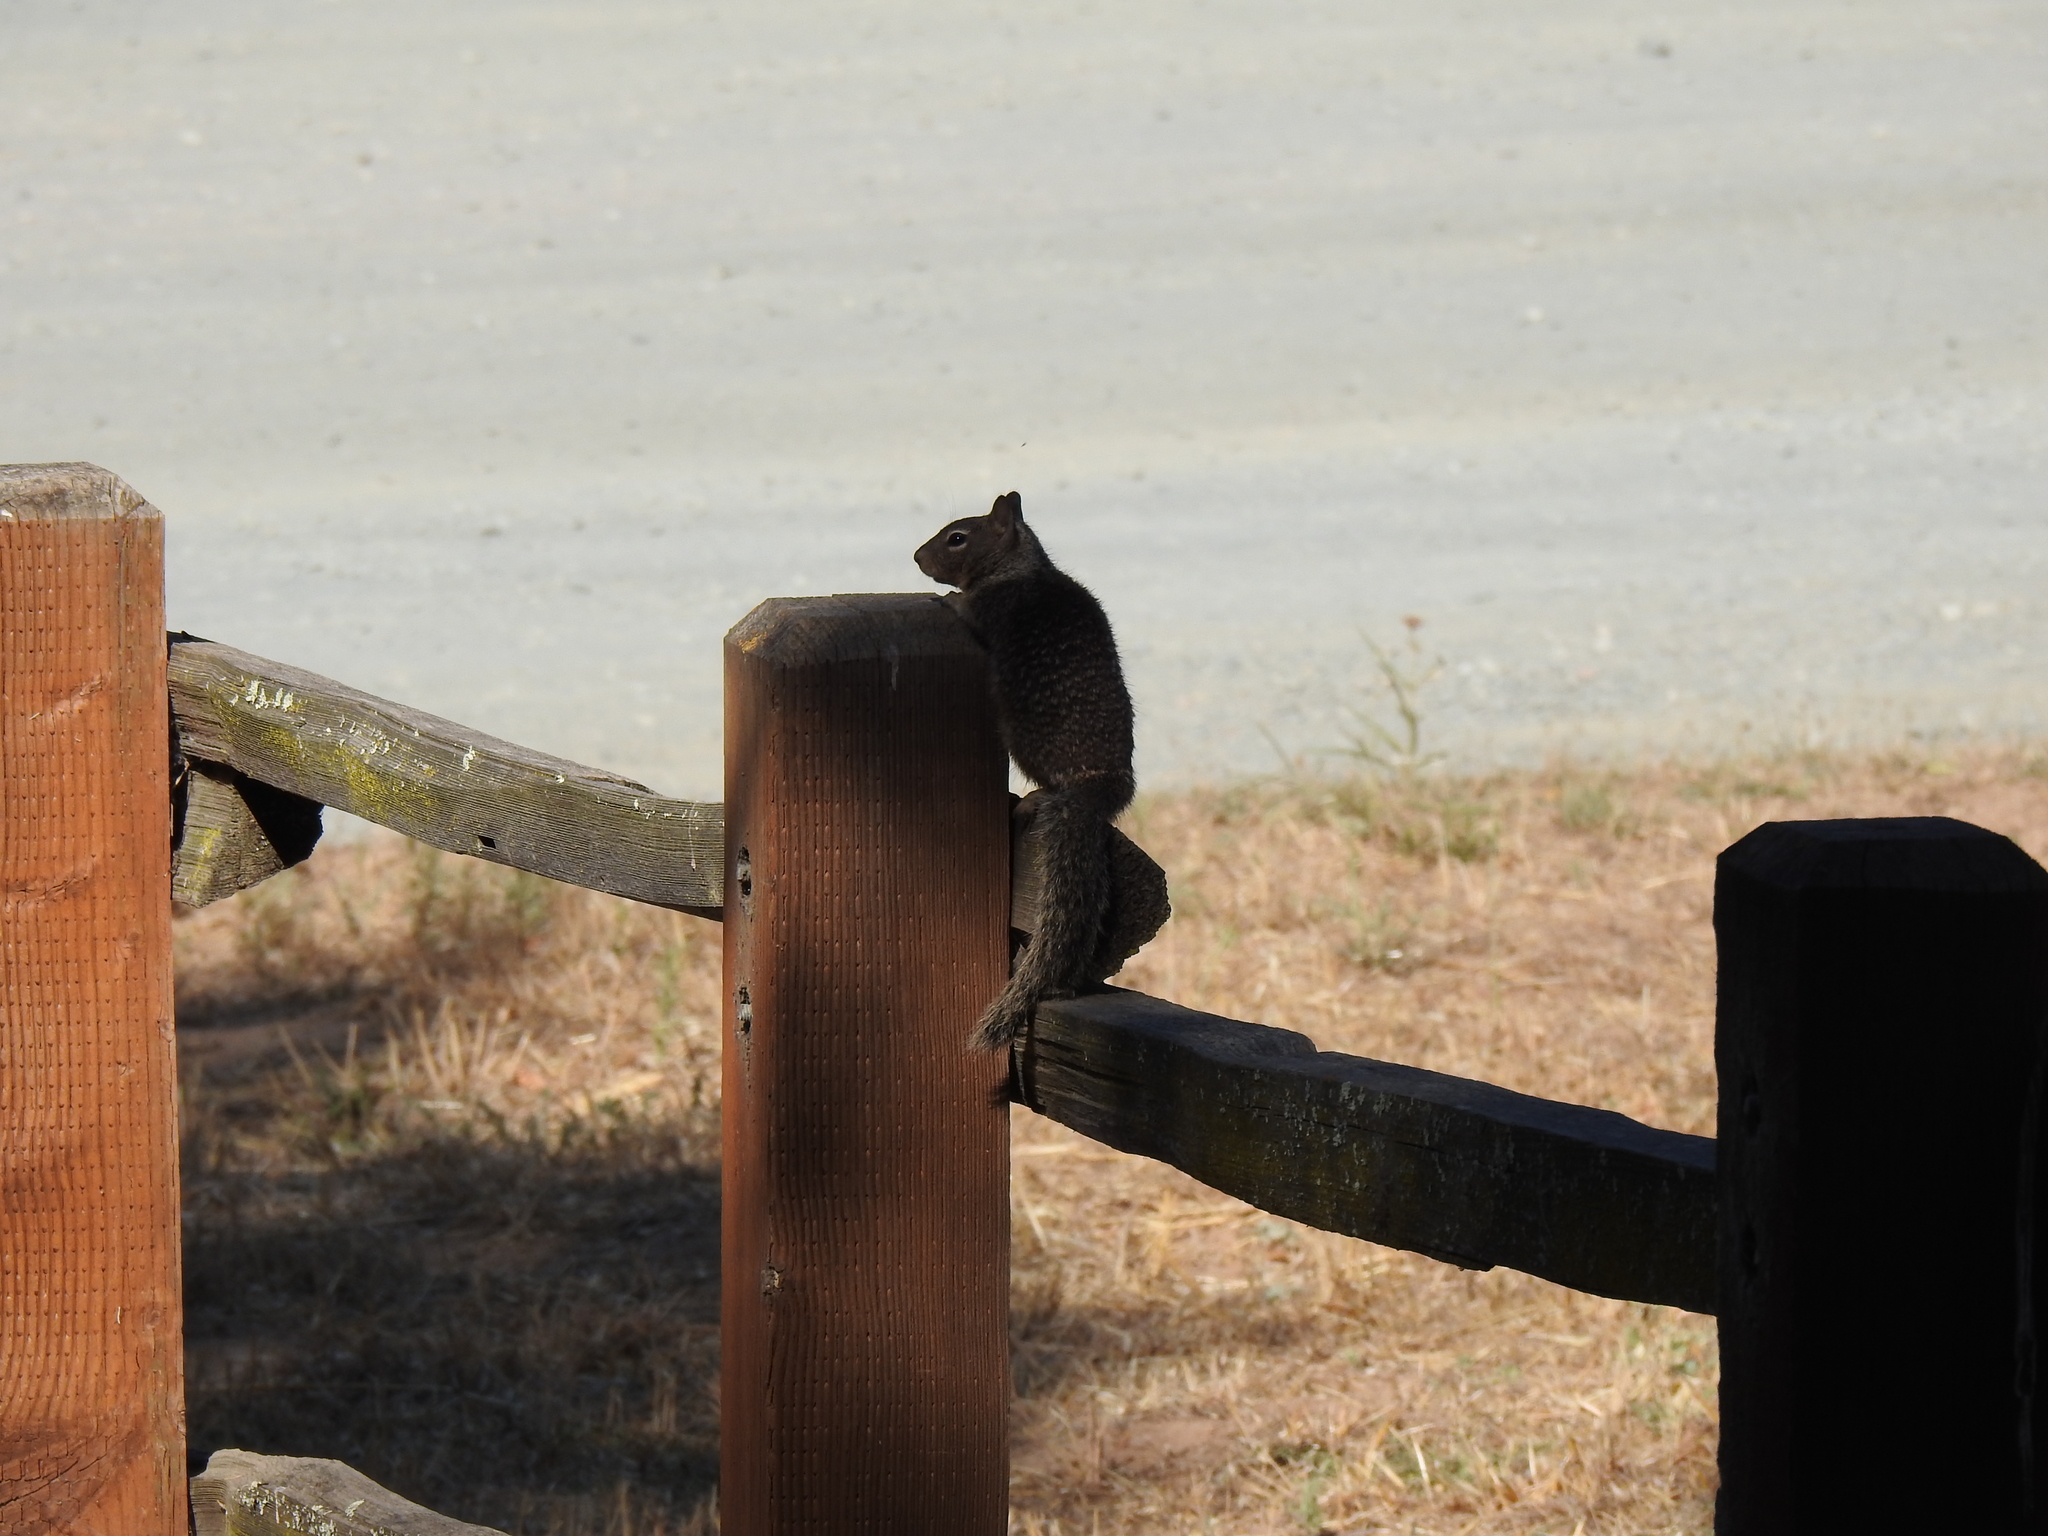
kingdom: Animalia
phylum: Chordata
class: Mammalia
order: Rodentia
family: Sciuridae
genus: Otospermophilus
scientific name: Otospermophilus beecheyi
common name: California ground squirrel
